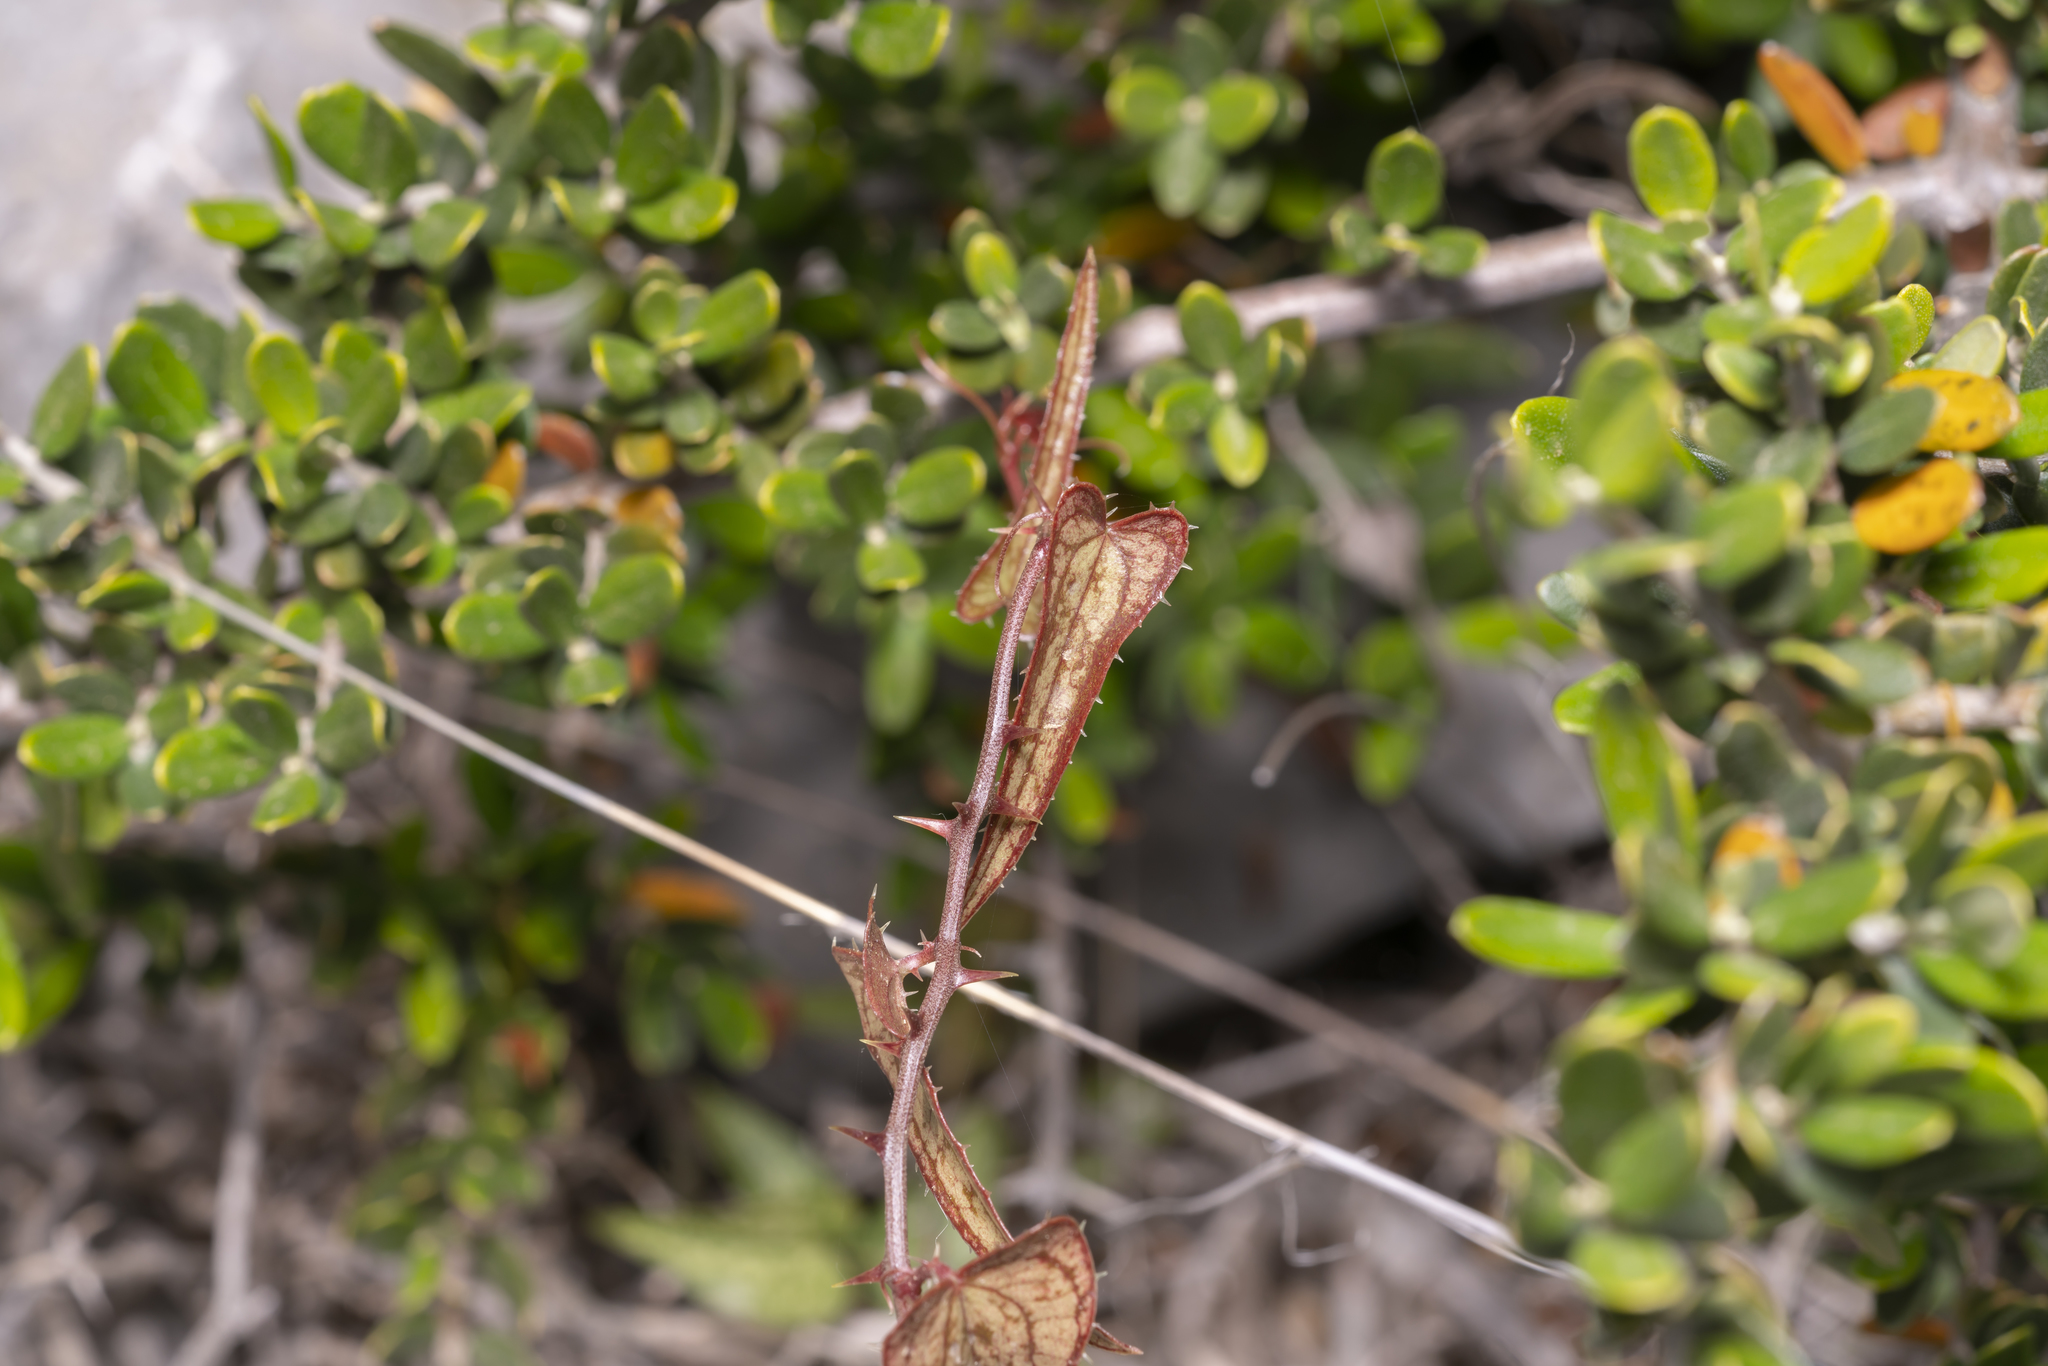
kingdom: Plantae
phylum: Tracheophyta
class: Liliopsida
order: Liliales
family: Smilacaceae
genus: Smilax
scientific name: Smilax aspera
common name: Common smilax
